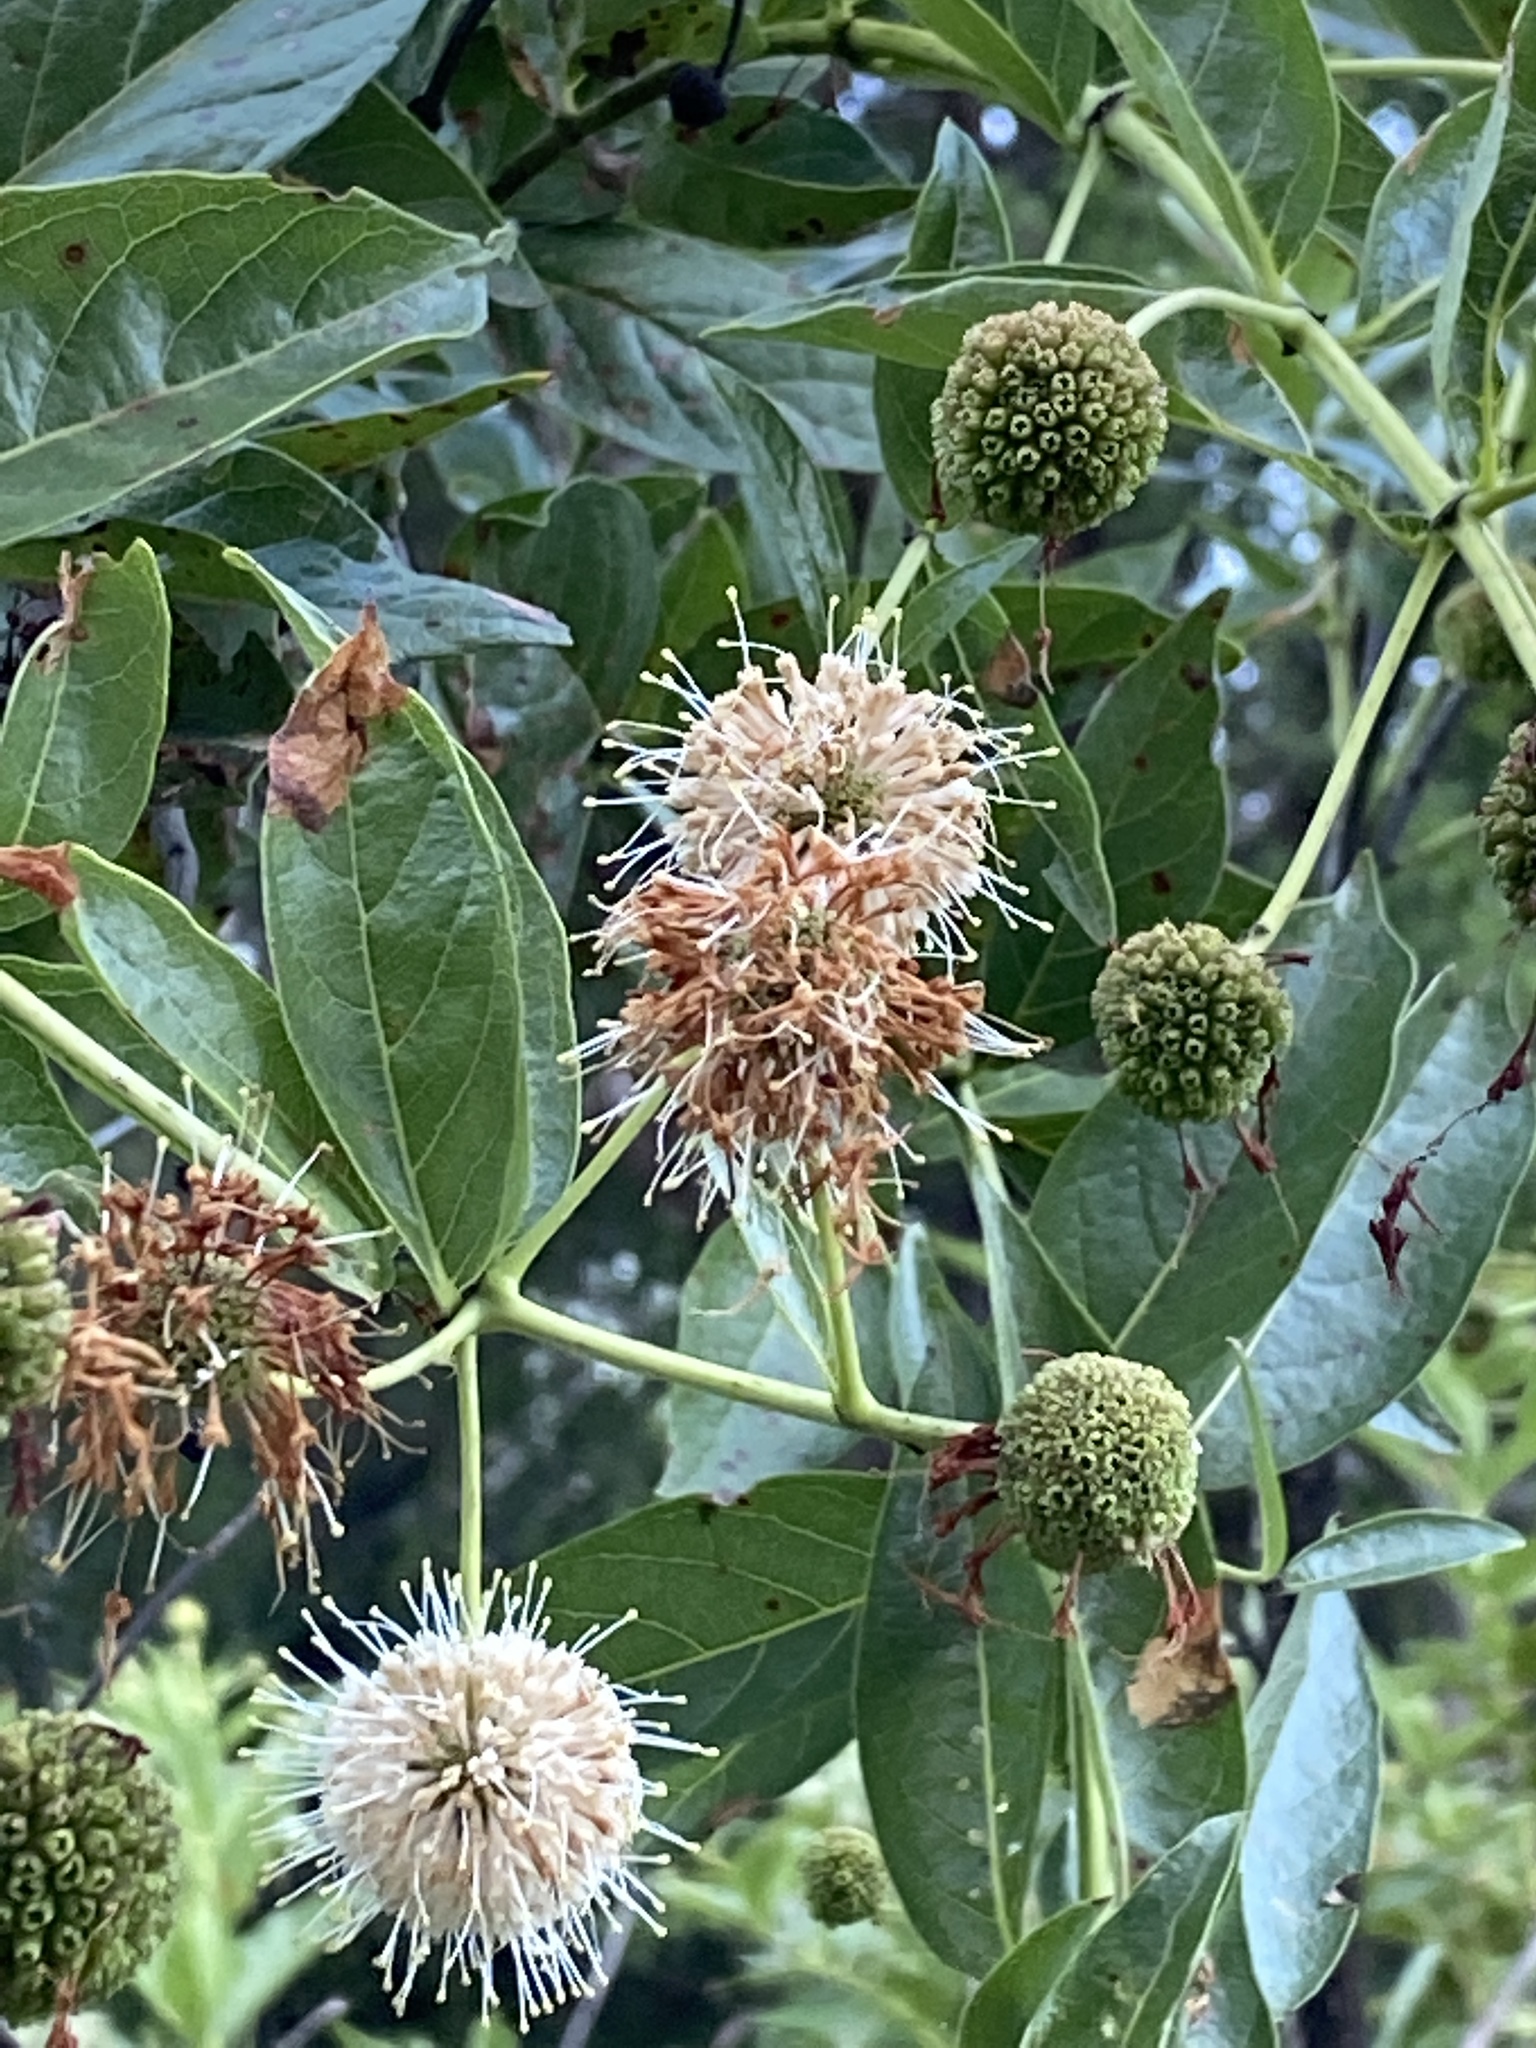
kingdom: Plantae
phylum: Tracheophyta
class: Magnoliopsida
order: Gentianales
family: Rubiaceae
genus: Cephalanthus
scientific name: Cephalanthus occidentalis
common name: Button-willow
